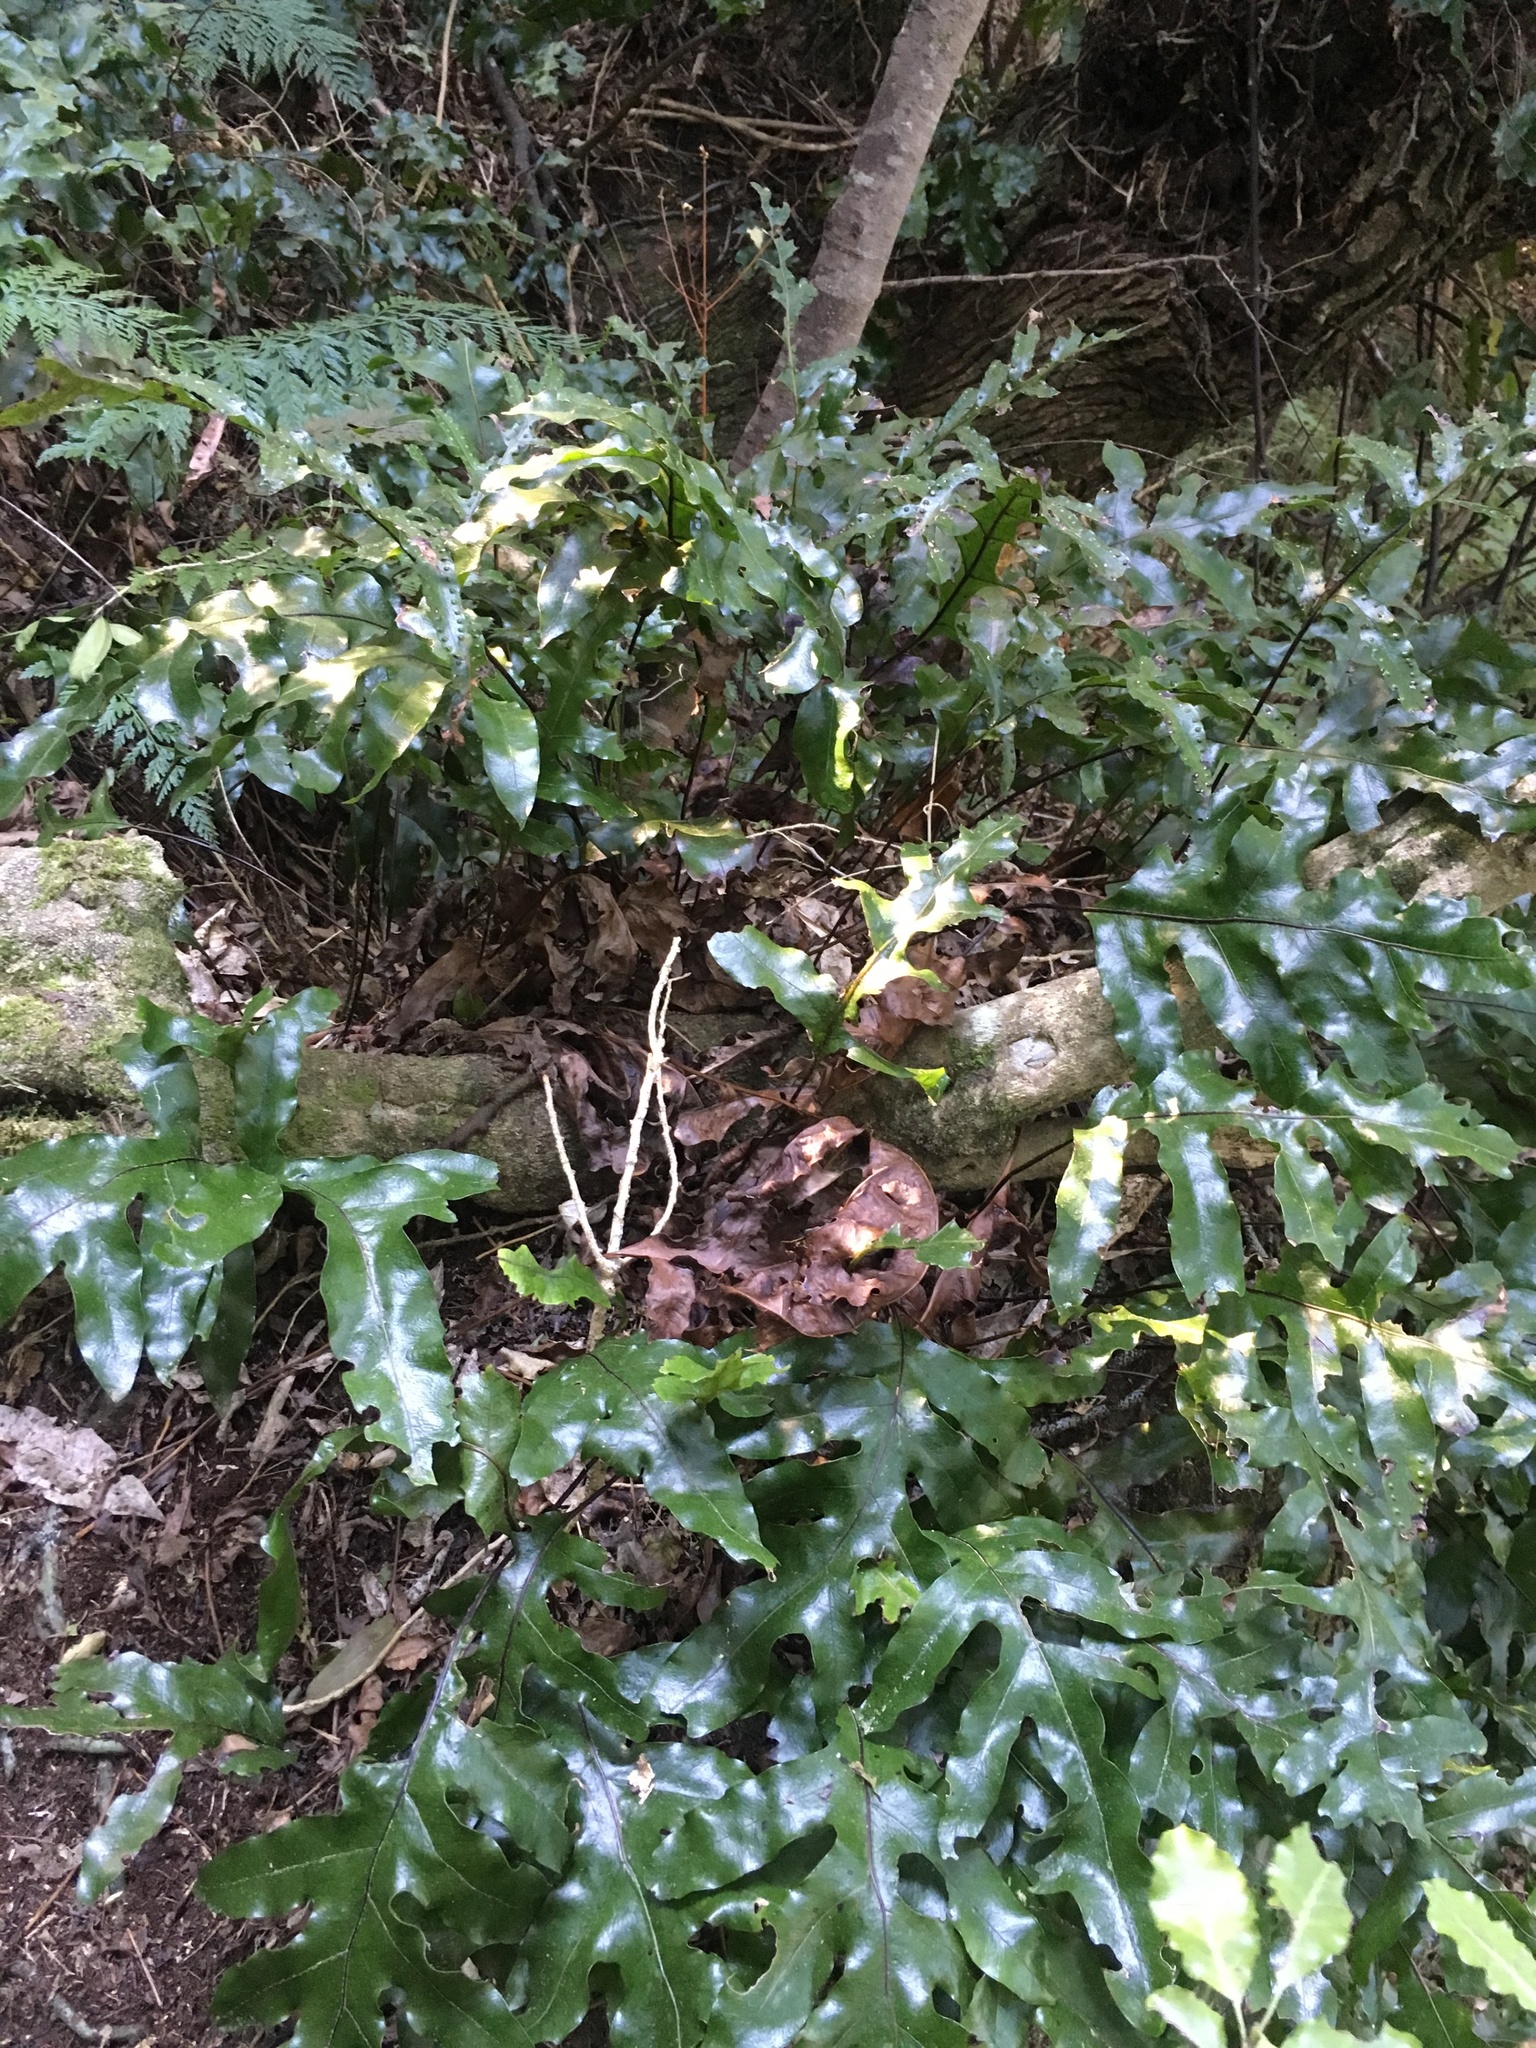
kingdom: Plantae
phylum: Tracheophyta
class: Polypodiopsida
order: Polypodiales
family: Polypodiaceae
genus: Lecanopteris
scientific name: Lecanopteris pustulata
